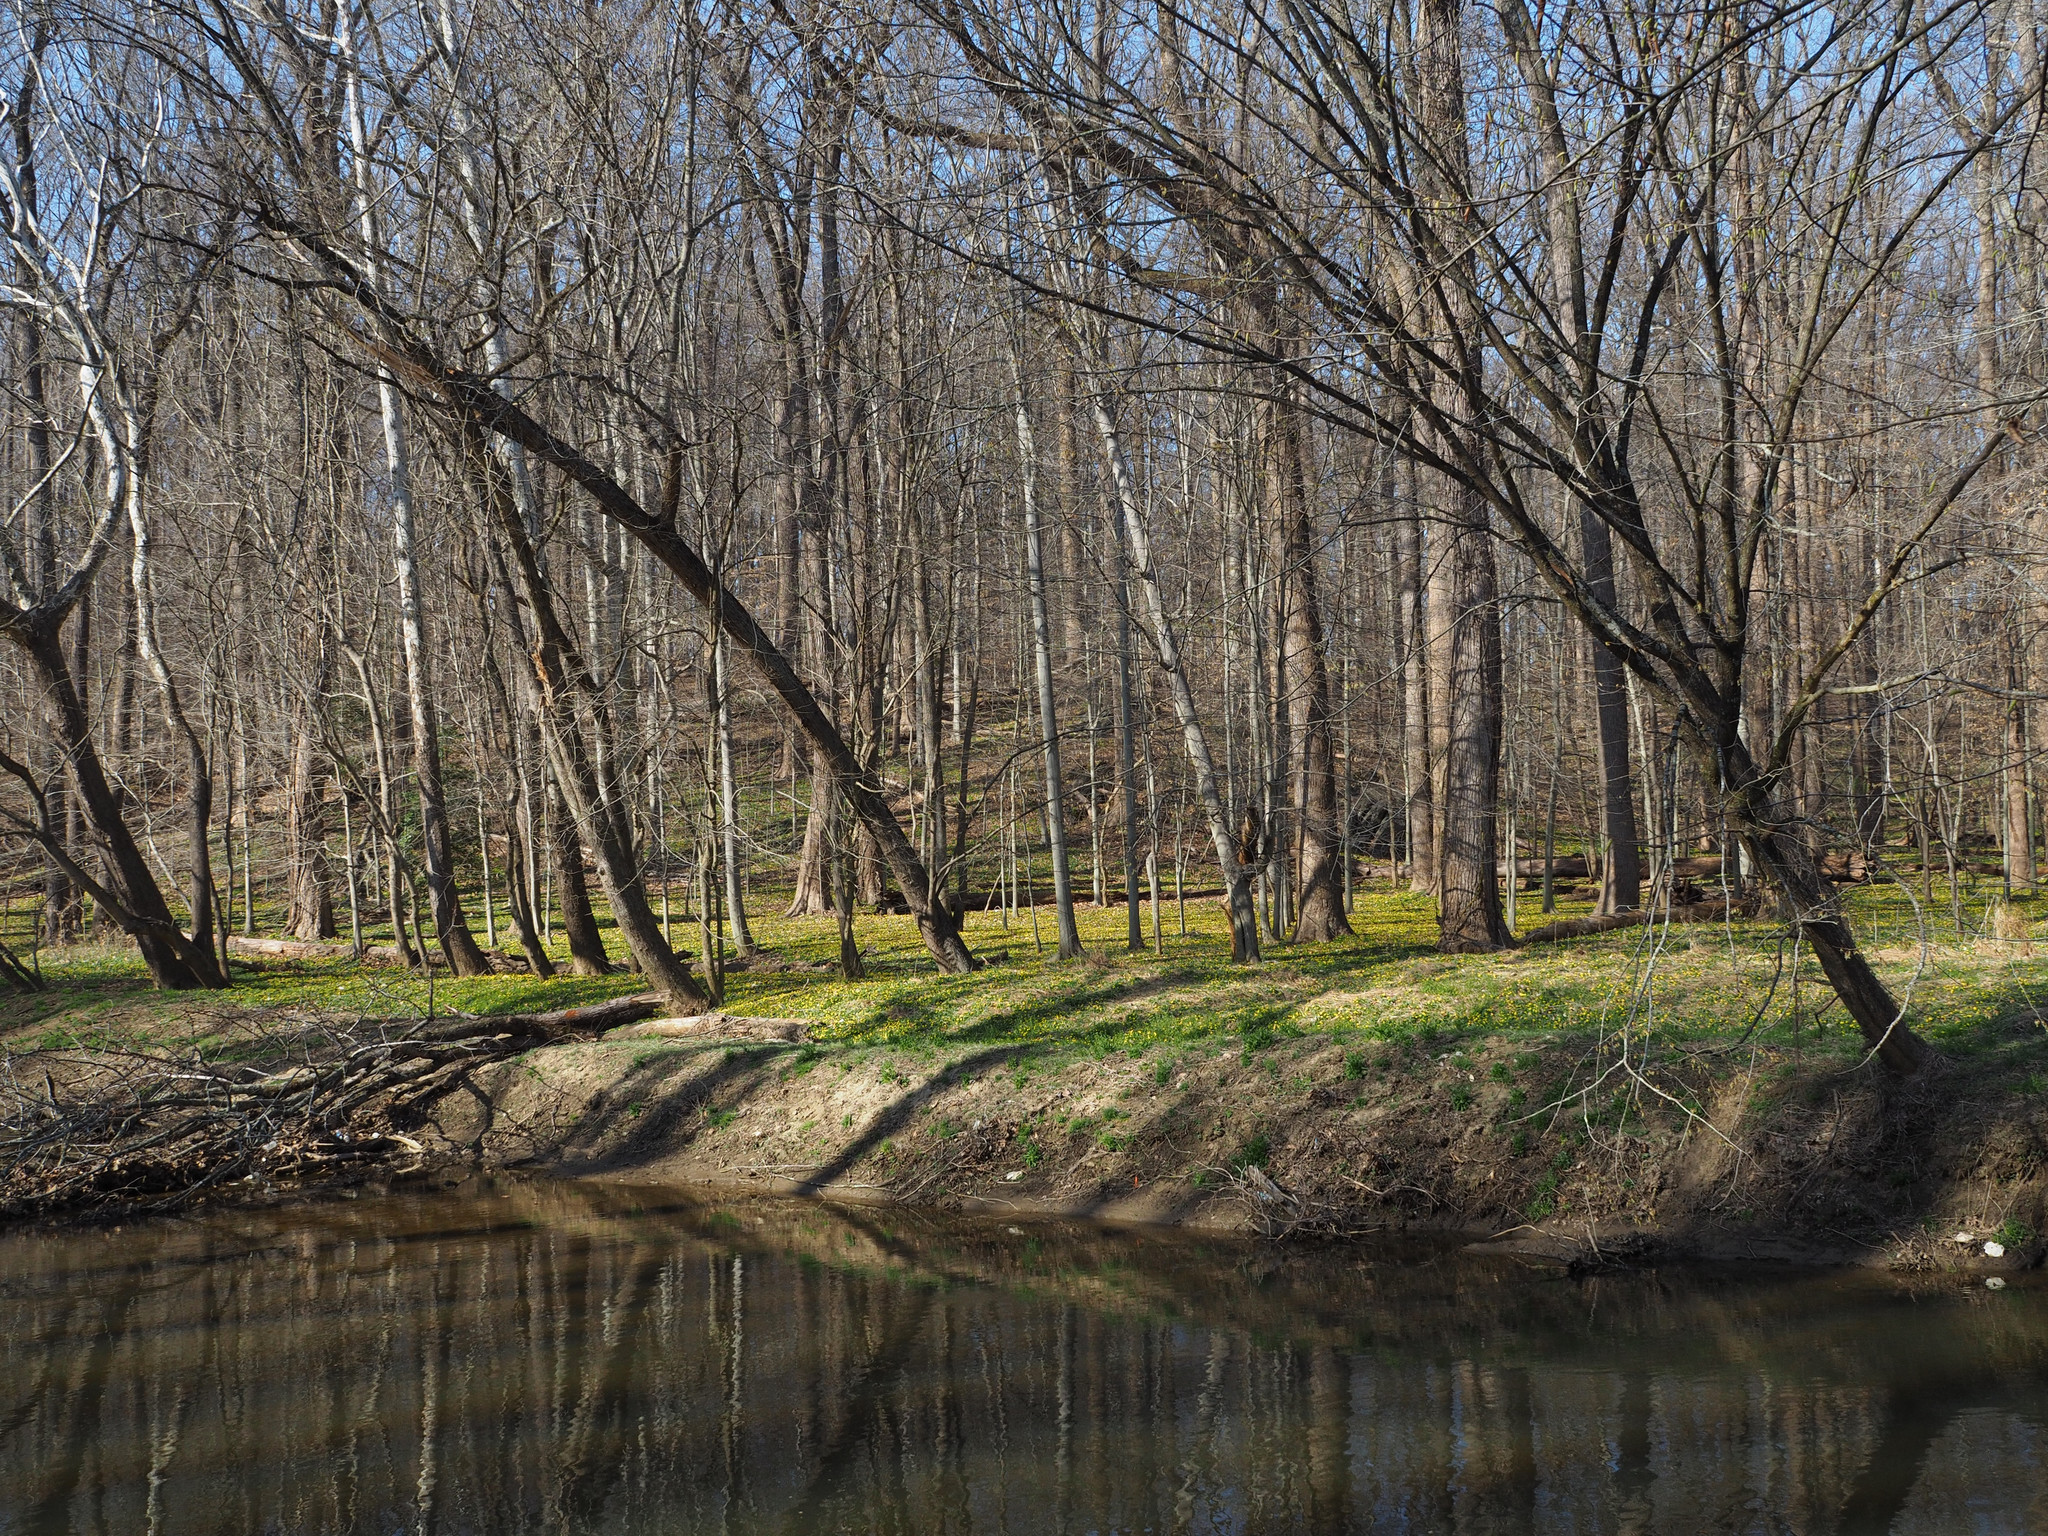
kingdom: Plantae
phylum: Tracheophyta
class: Magnoliopsida
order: Ranunculales
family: Ranunculaceae
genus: Ficaria
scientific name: Ficaria verna
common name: Lesser celandine
